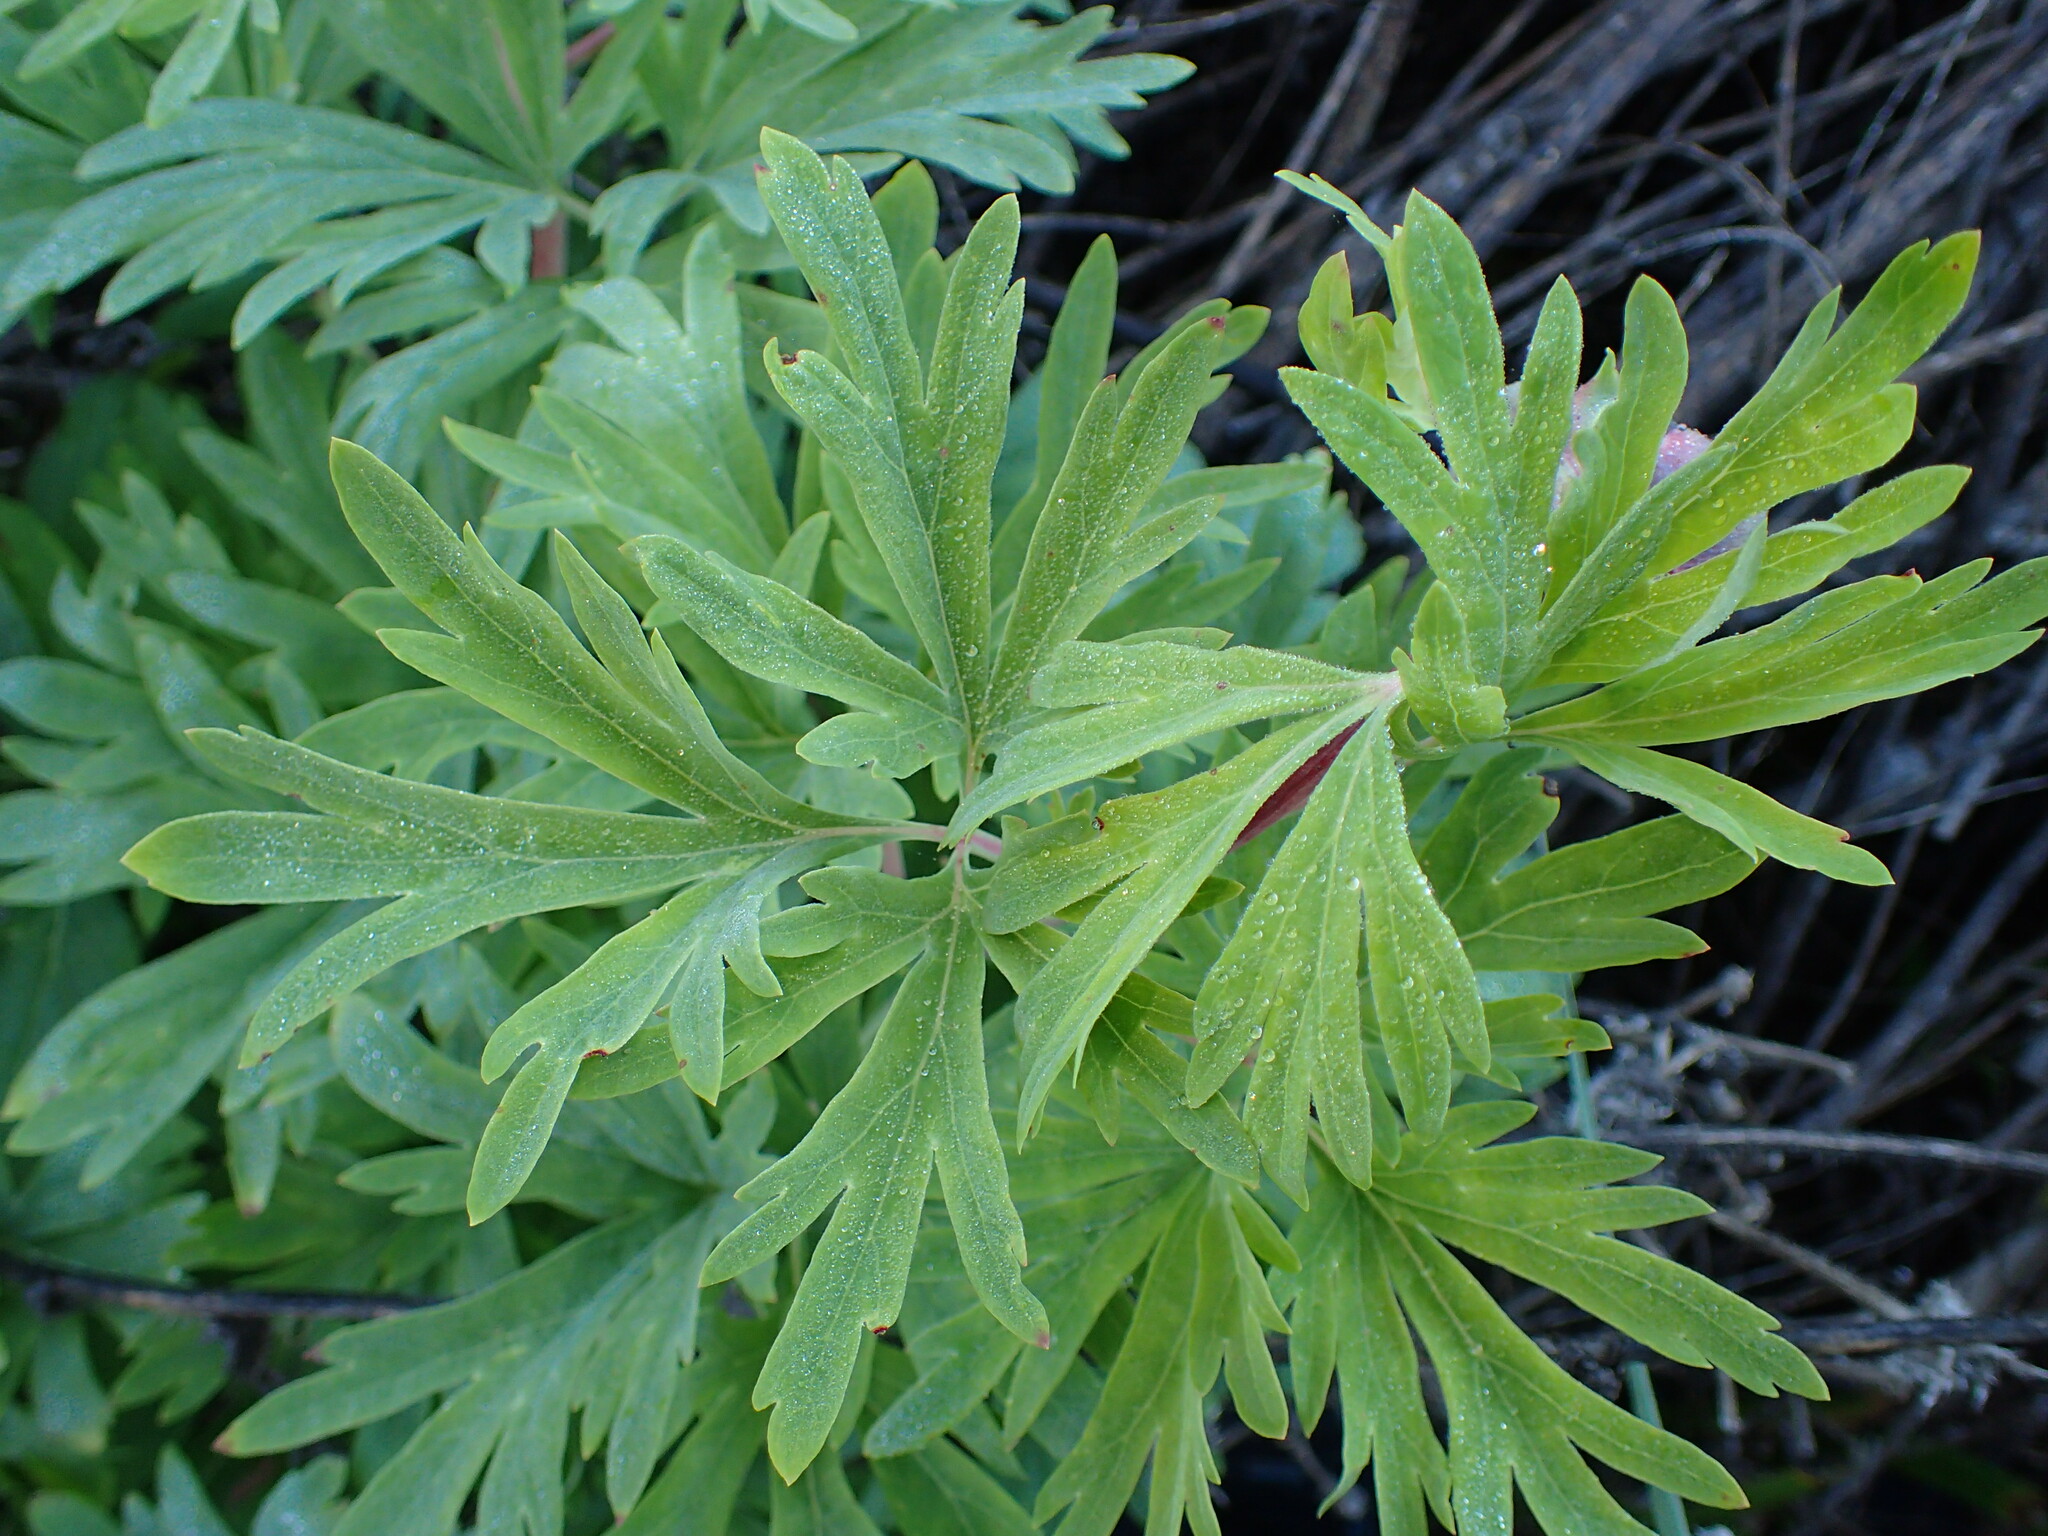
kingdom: Plantae
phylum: Tracheophyta
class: Magnoliopsida
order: Saxifragales
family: Paeoniaceae
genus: Paeonia
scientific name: Paeonia californica
